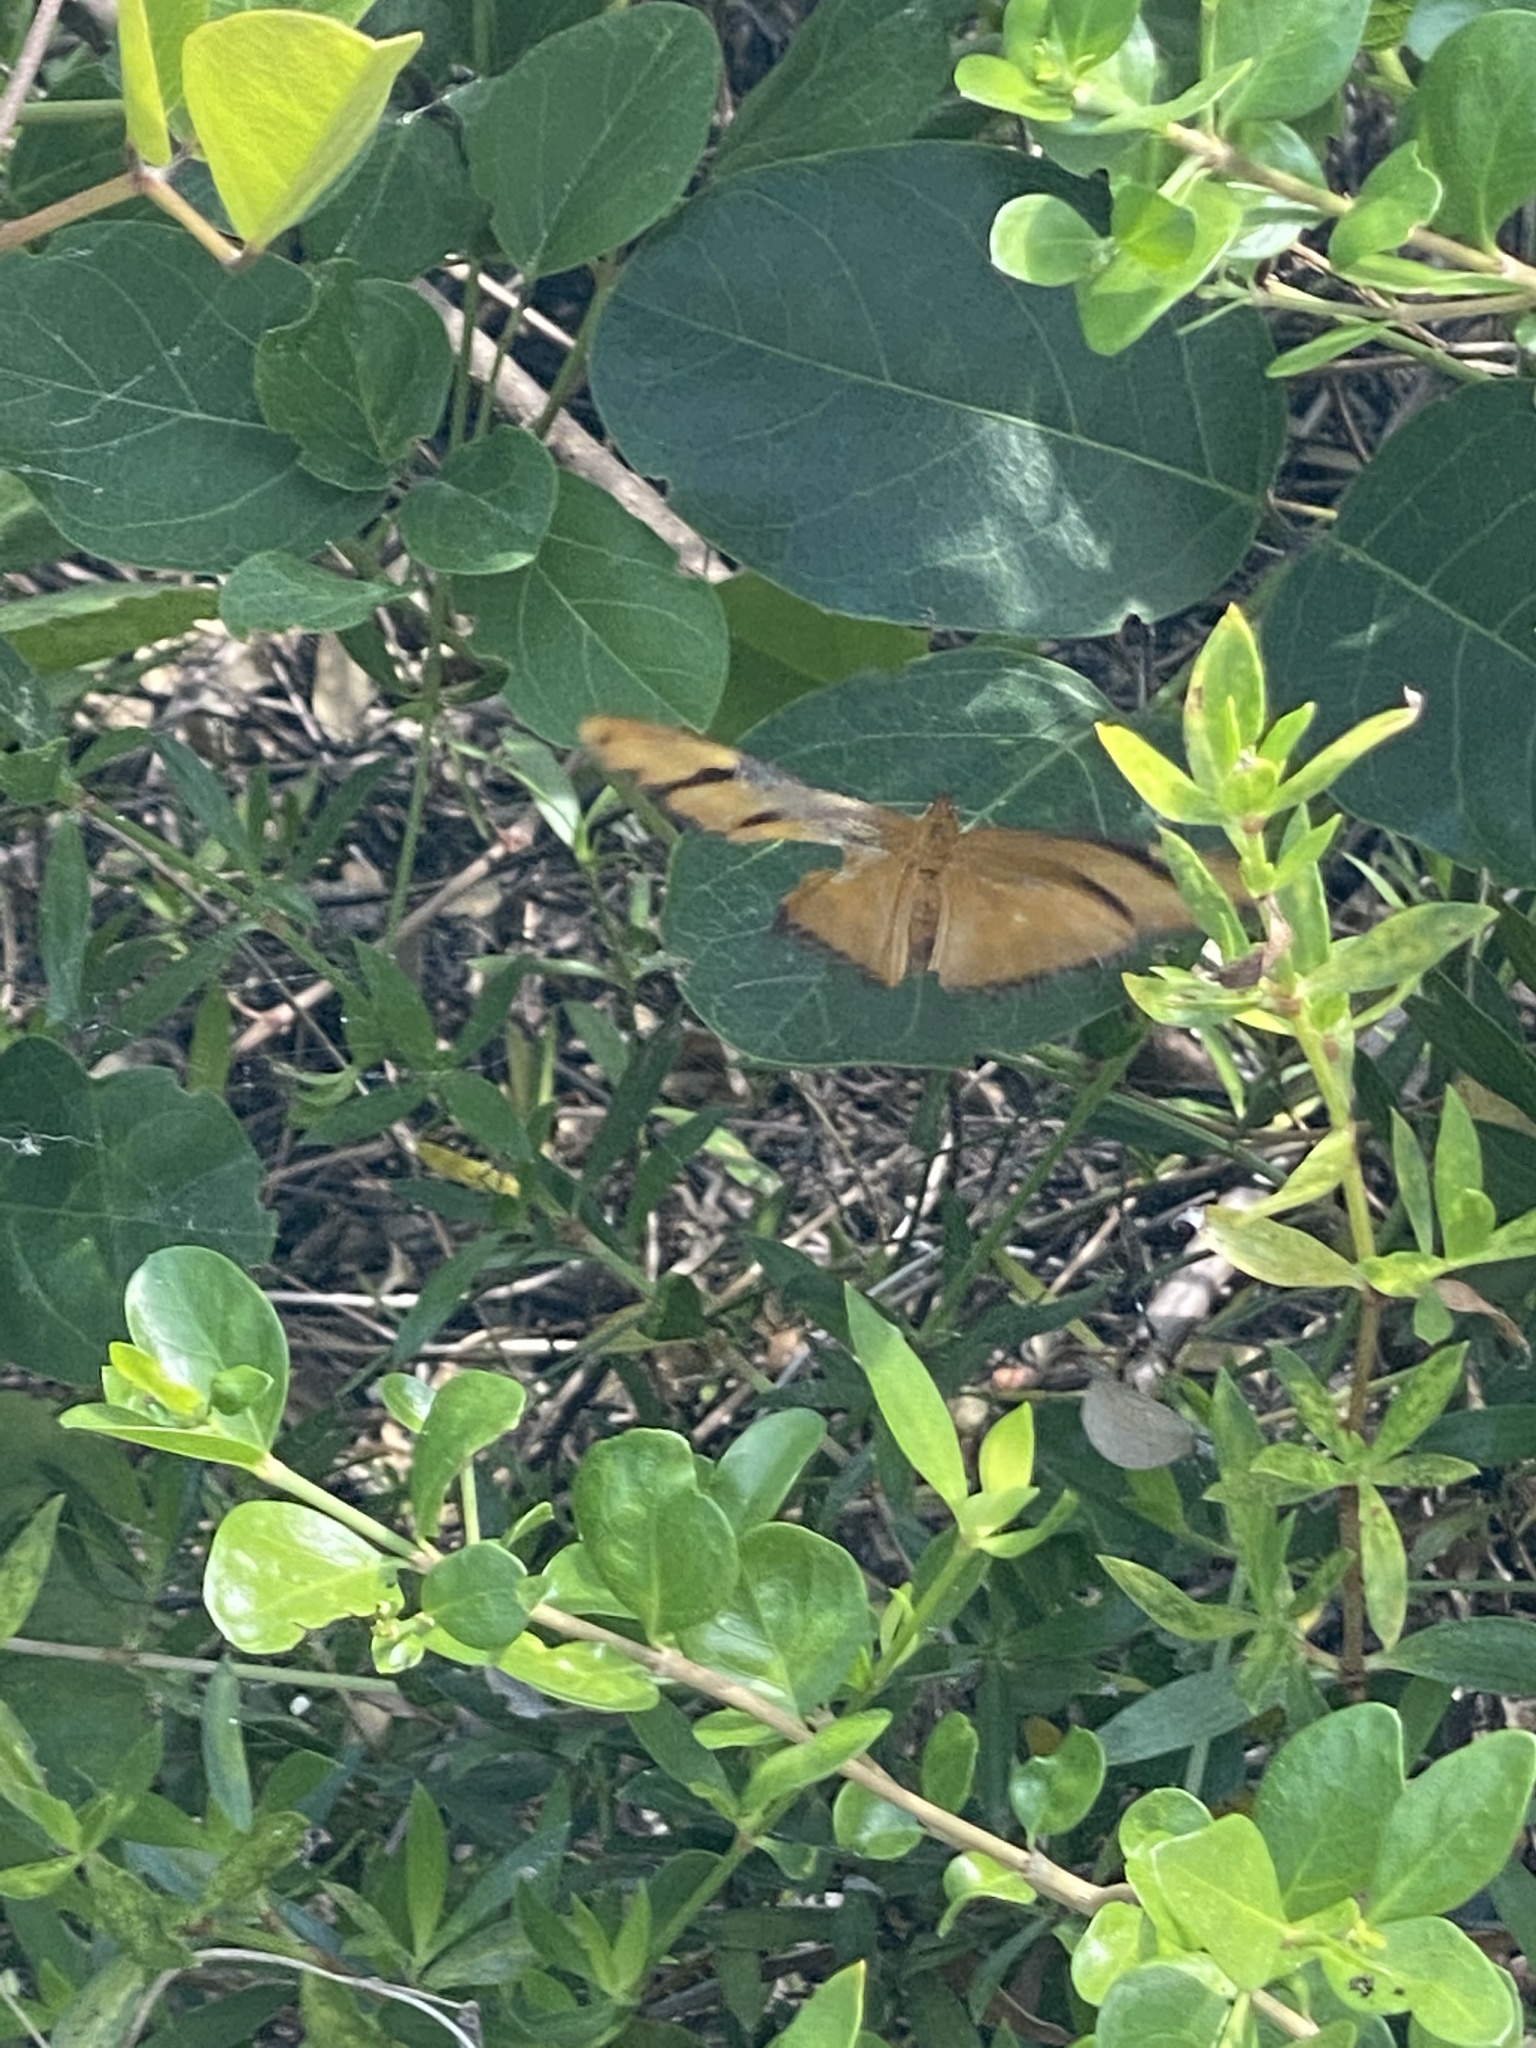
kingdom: Animalia
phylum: Arthropoda
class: Insecta
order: Lepidoptera
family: Nymphalidae
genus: Dryas
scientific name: Dryas iulia
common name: Flambeau
